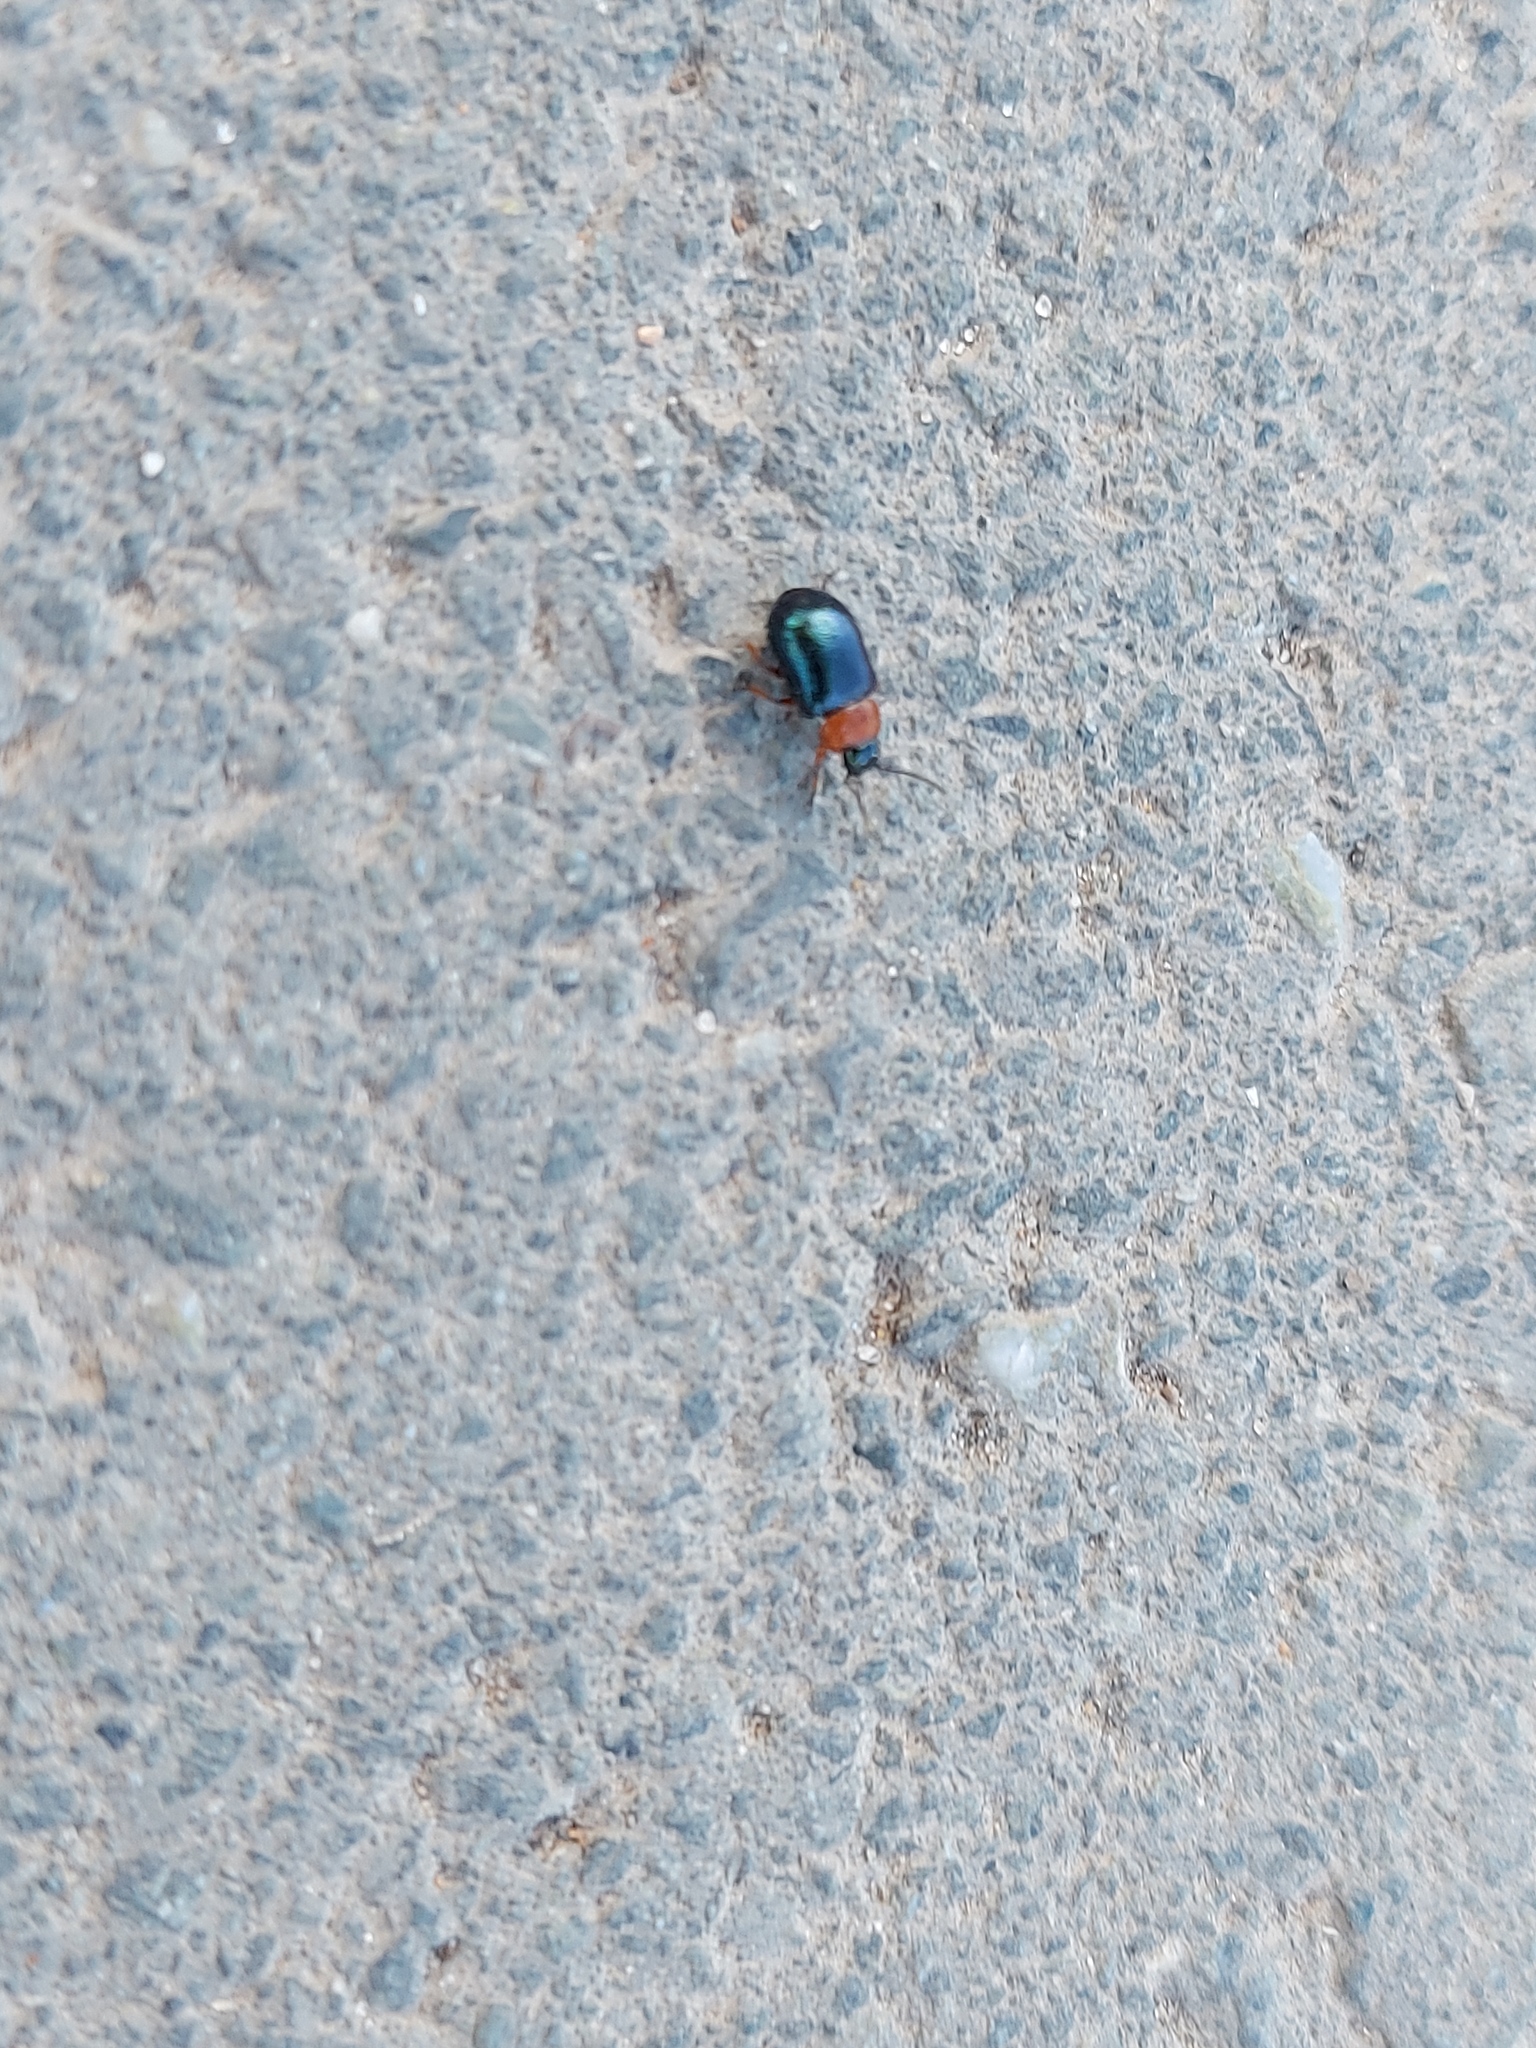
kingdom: Animalia
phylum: Arthropoda
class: Insecta
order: Coleoptera
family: Chrysomelidae
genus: Gastrophysa
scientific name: Gastrophysa polygoni
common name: Knotweed leaf beetle
